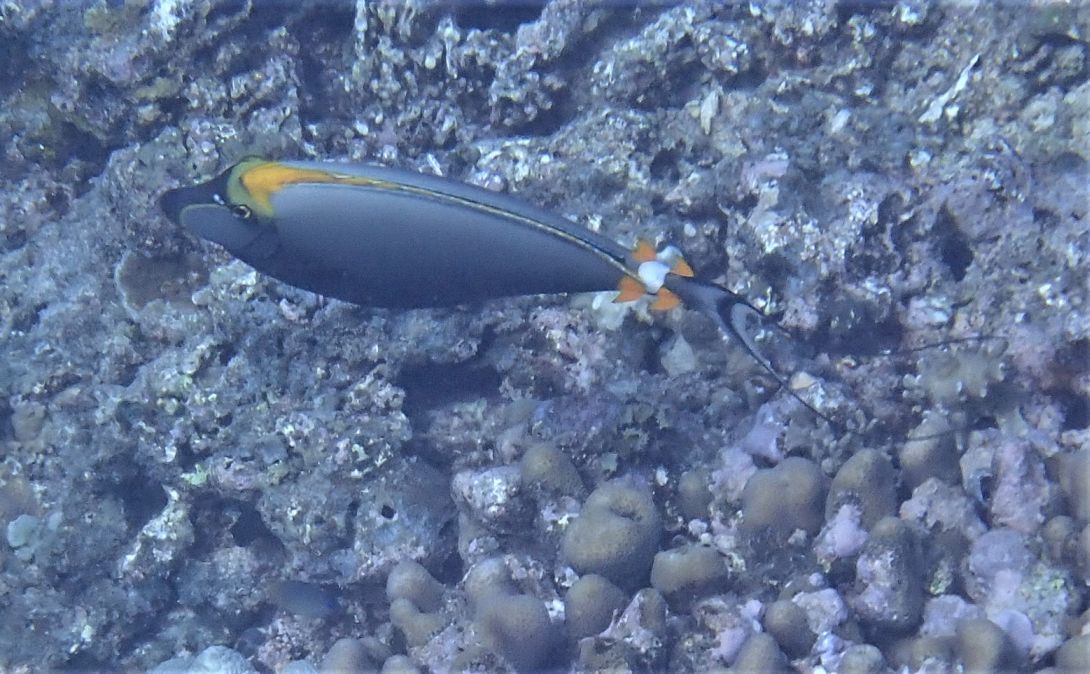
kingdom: Animalia
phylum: Chordata
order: Perciformes
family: Acanthuridae
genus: Naso
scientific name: Naso elegans
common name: Orangespine unicornfish
